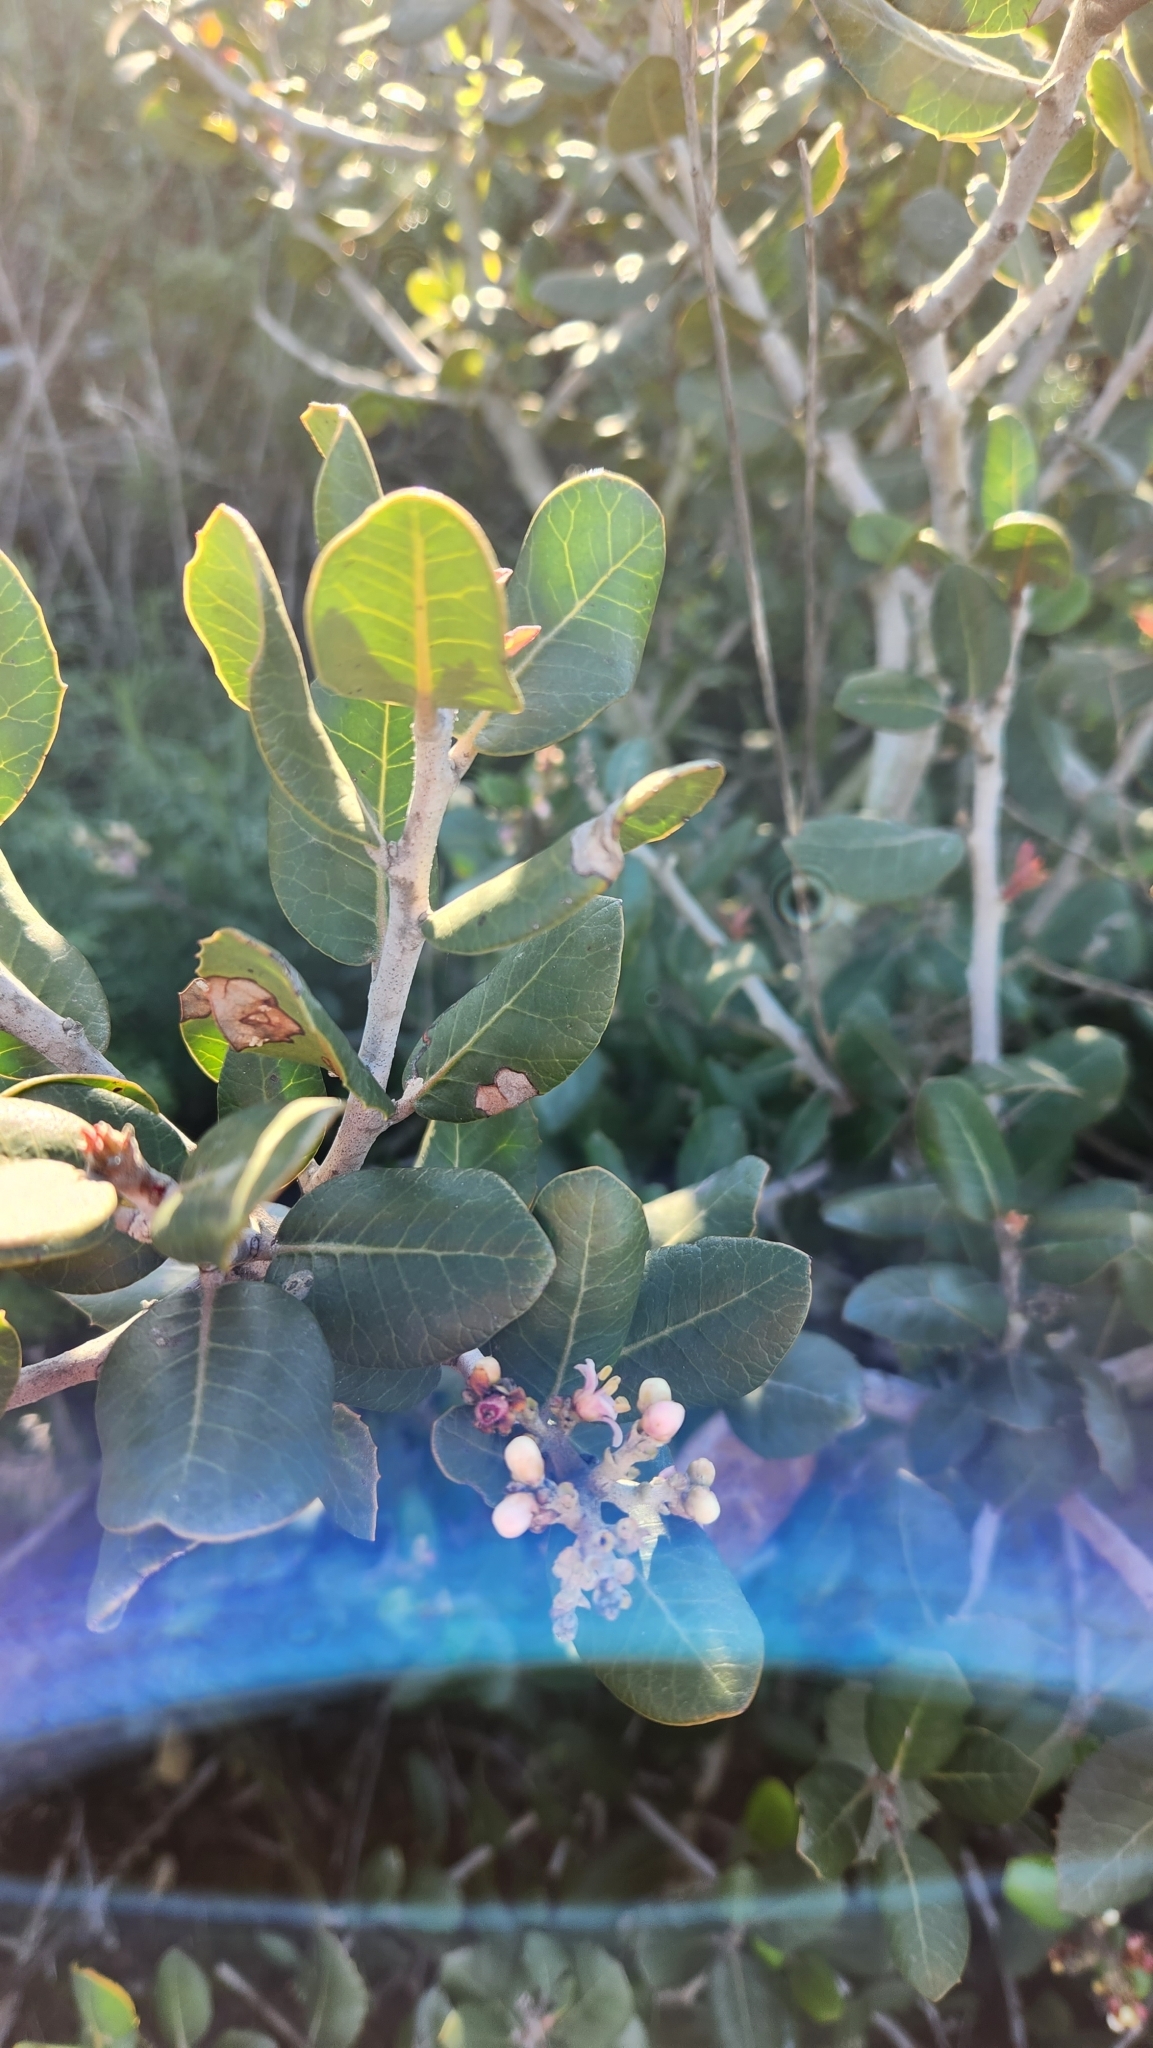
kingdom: Plantae
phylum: Tracheophyta
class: Magnoliopsida
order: Sapindales
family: Anacardiaceae
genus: Rhus
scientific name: Rhus integrifolia
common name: Lemonade sumac
